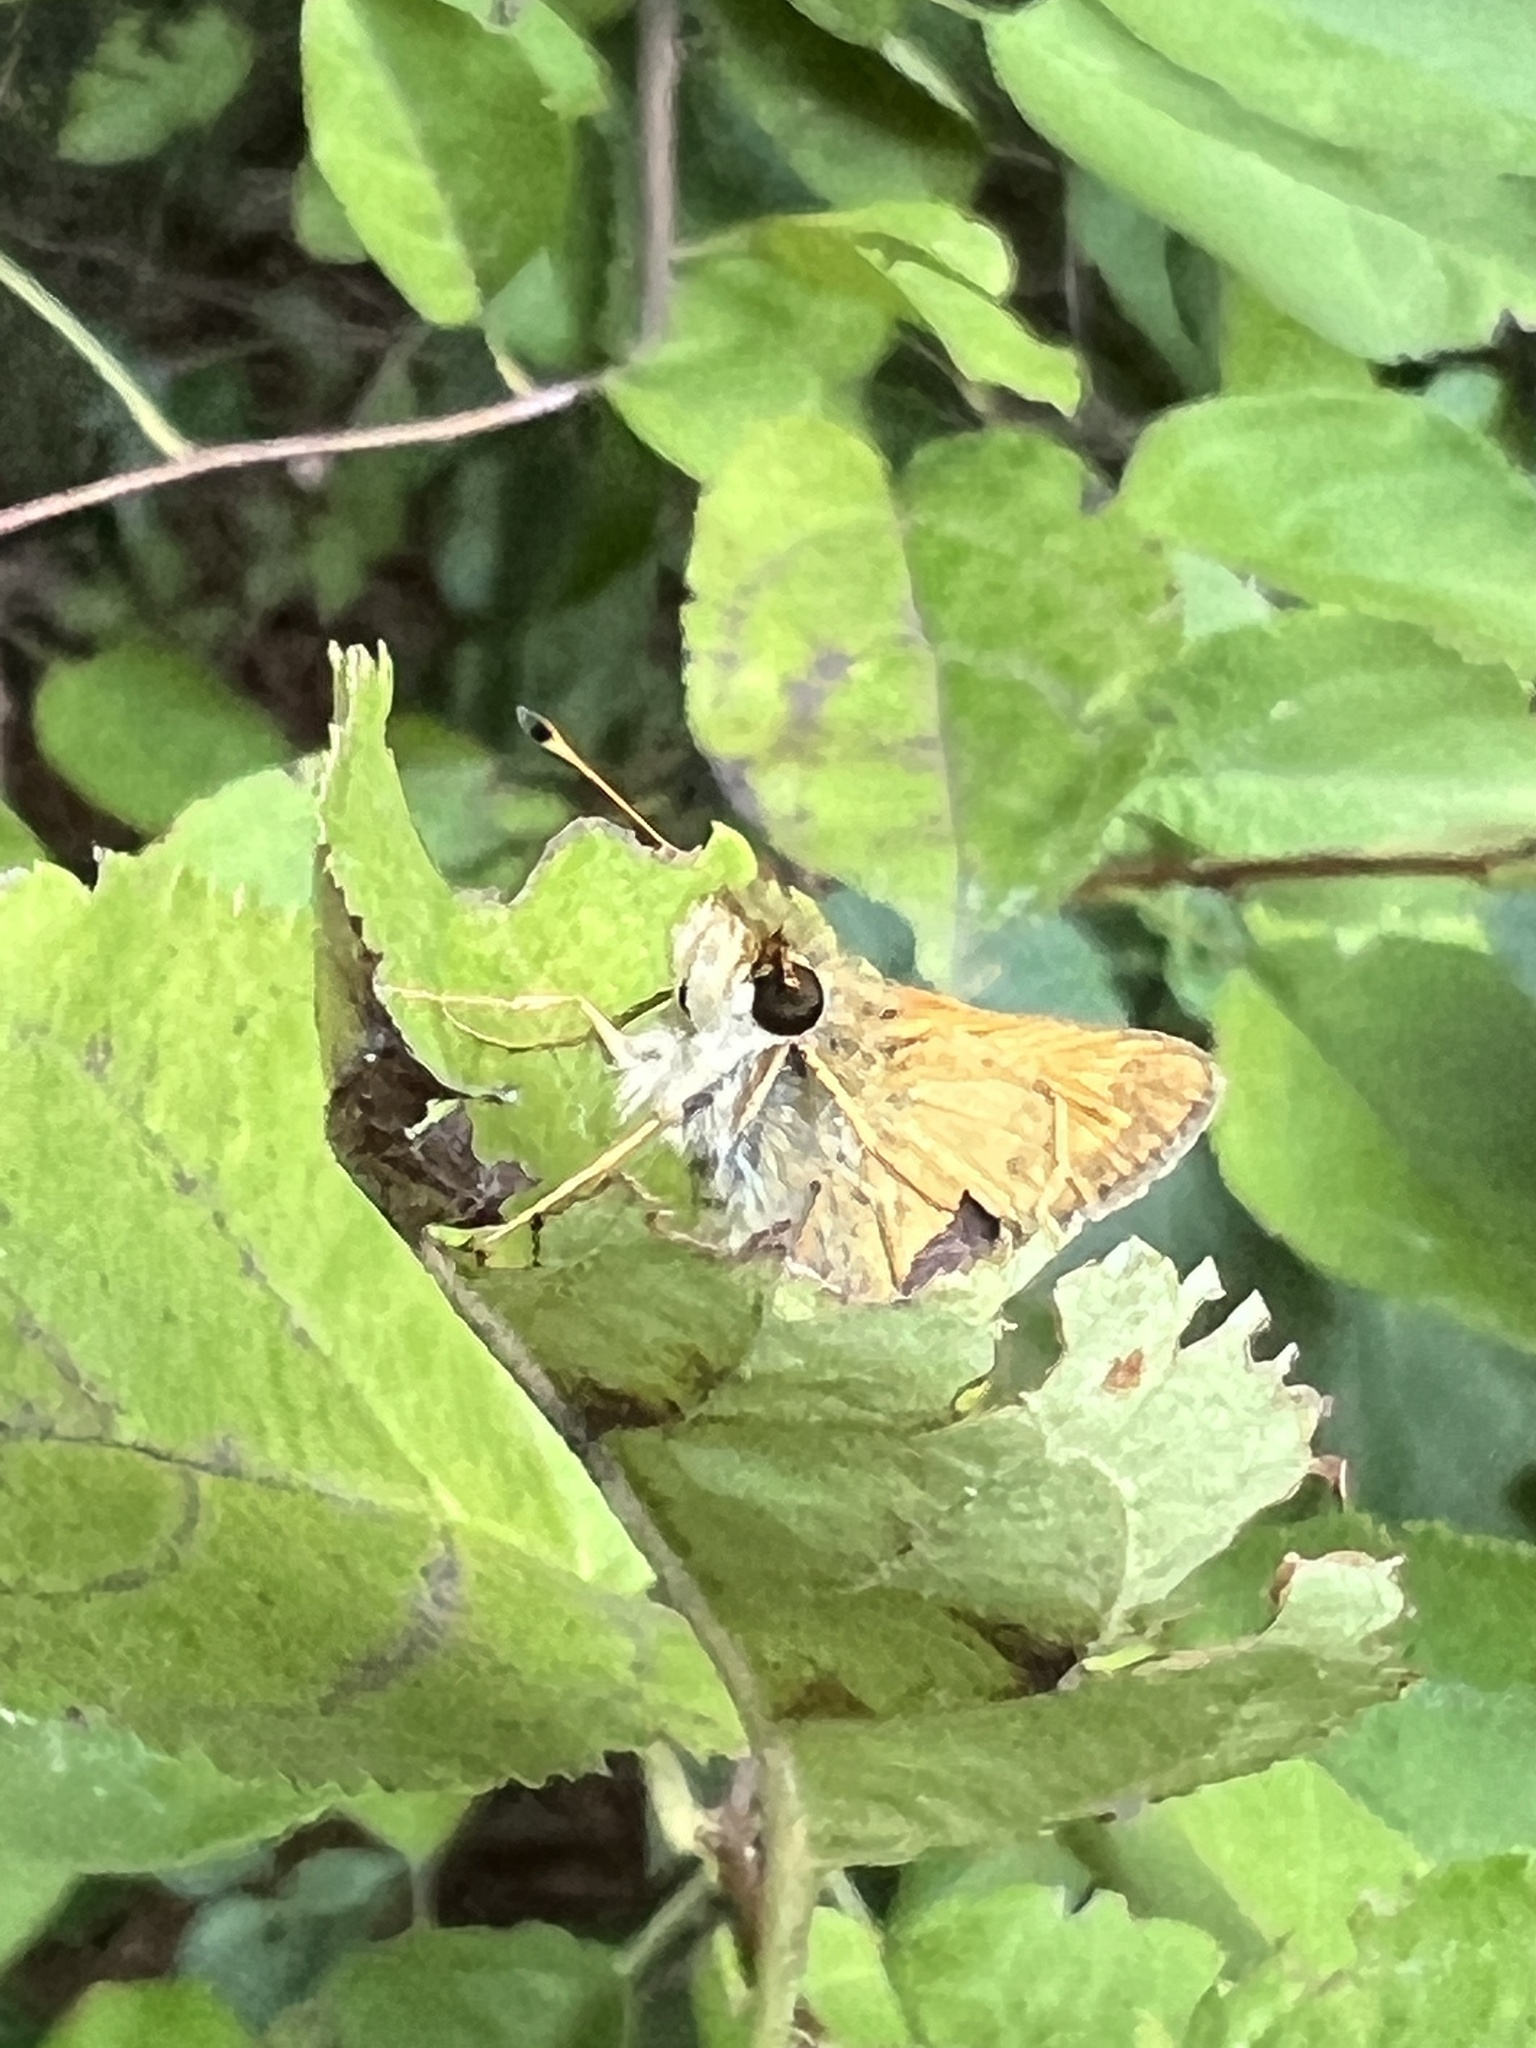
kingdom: Animalia
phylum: Arthropoda
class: Insecta
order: Lepidoptera
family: Hesperiidae
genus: Atalopedes
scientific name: Atalopedes
